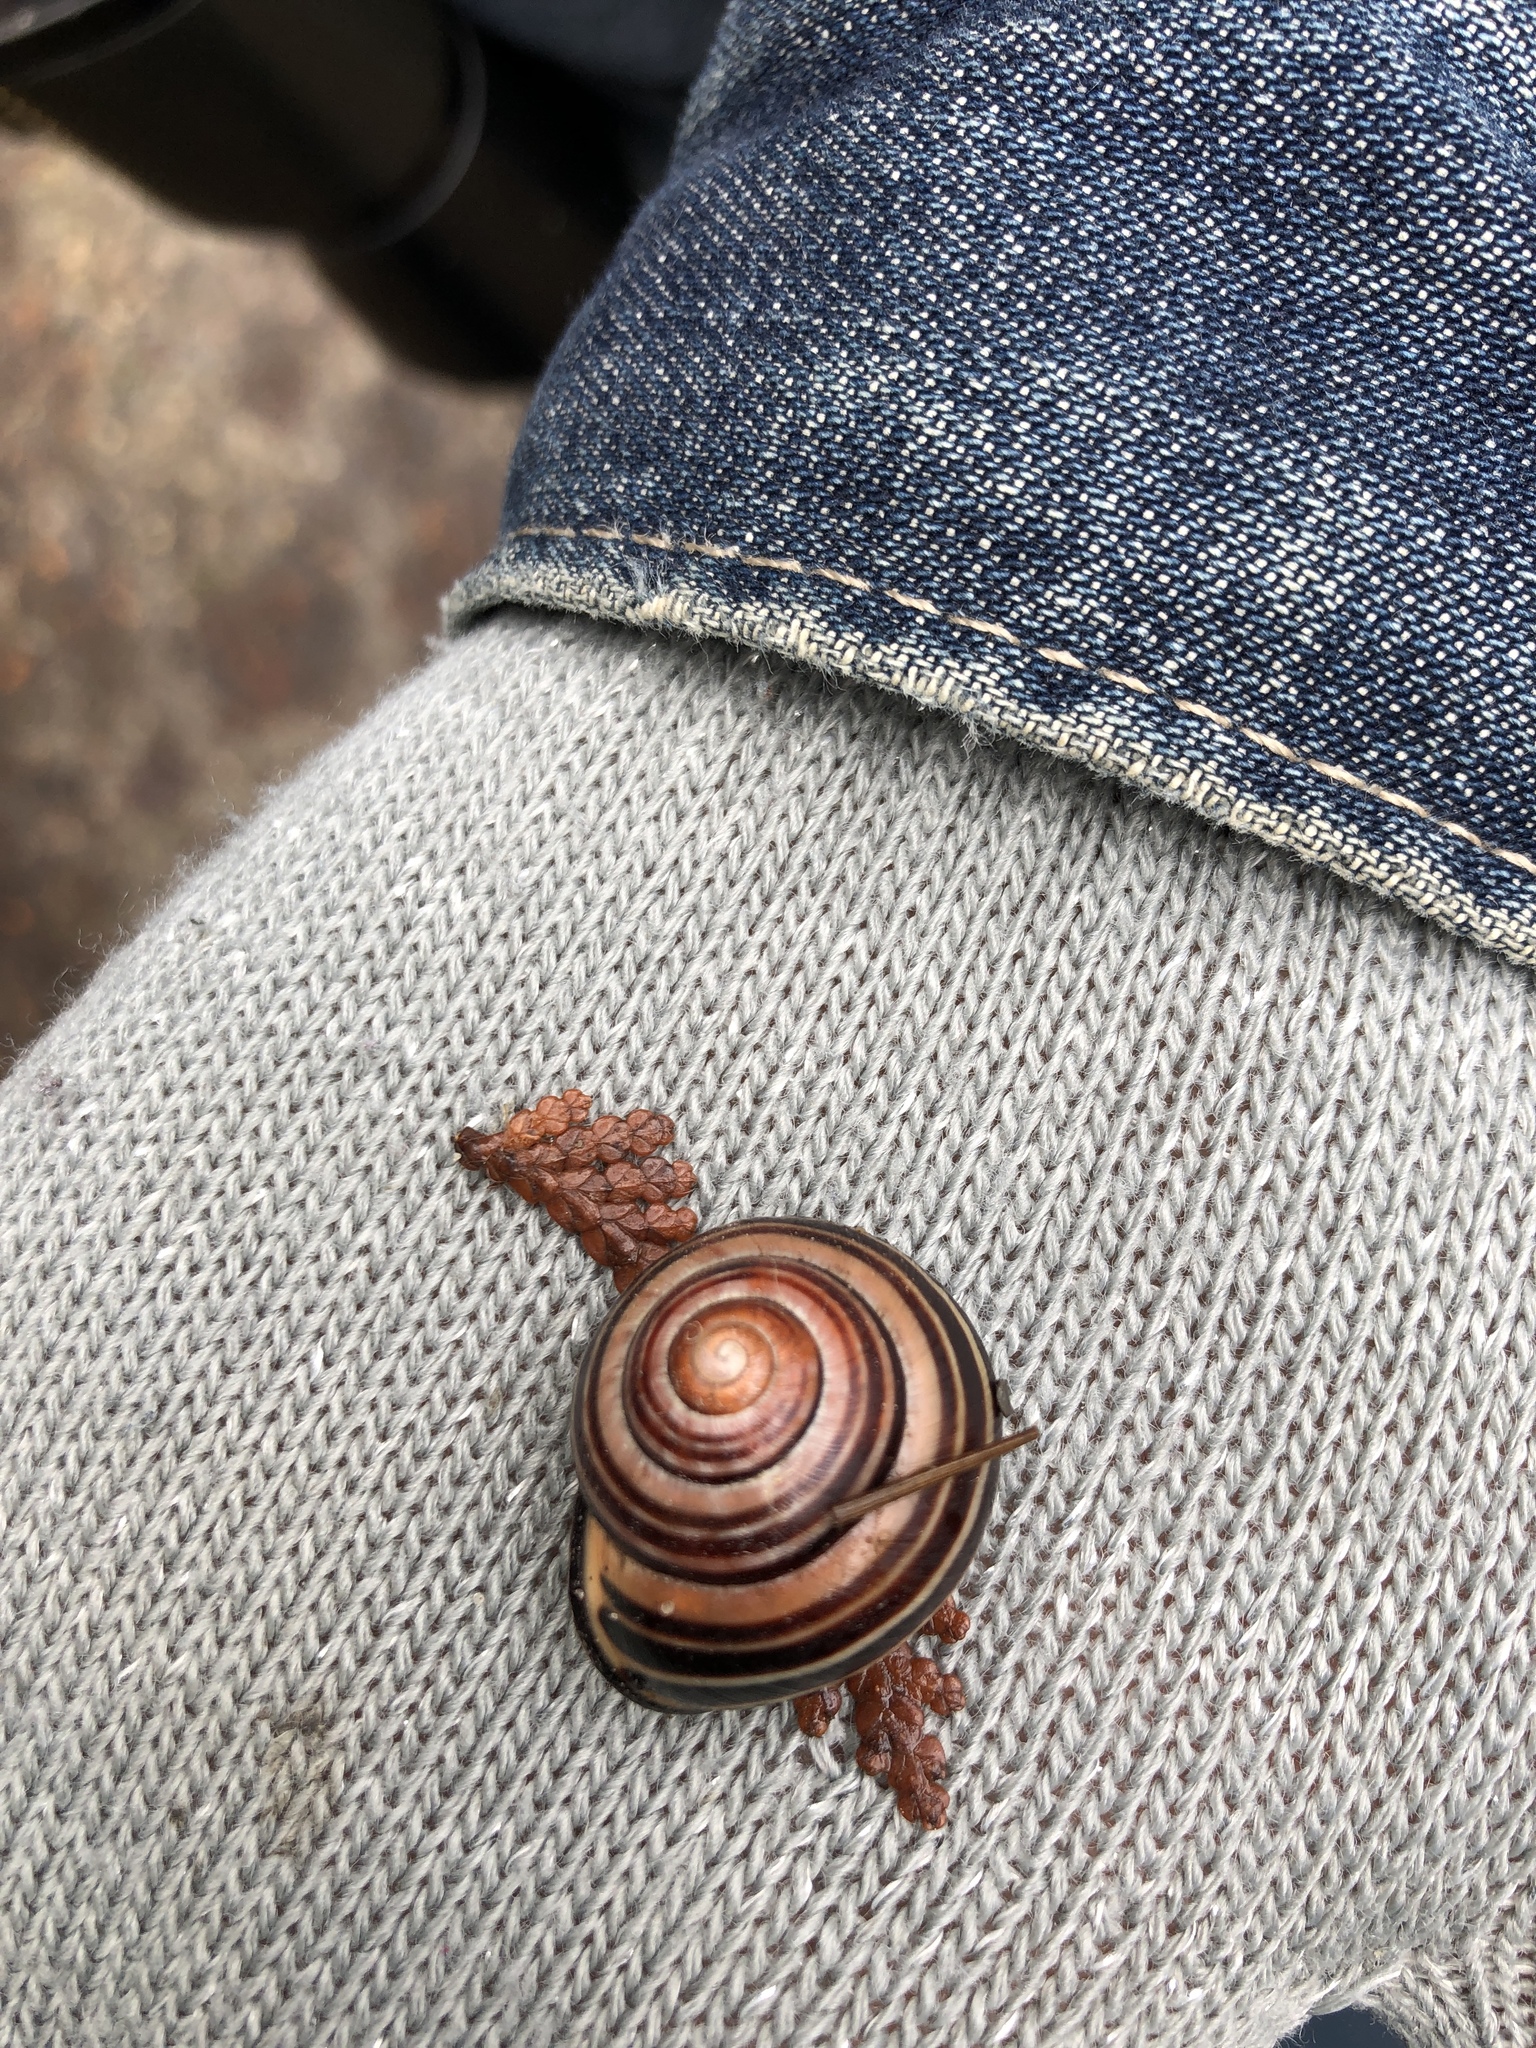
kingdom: Animalia
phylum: Mollusca
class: Gastropoda
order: Stylommatophora
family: Helicidae
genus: Cepaea
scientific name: Cepaea nemoralis
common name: Grovesnail
